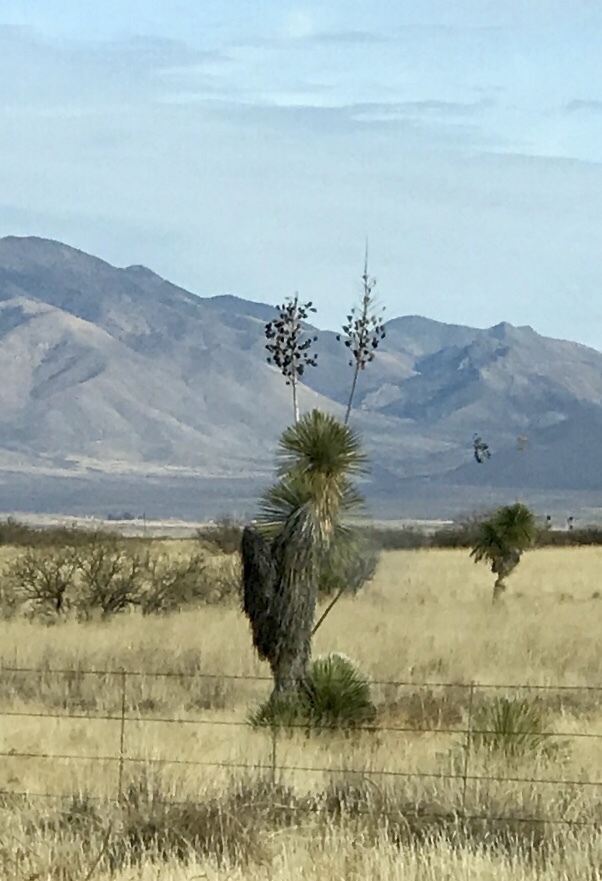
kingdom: Plantae
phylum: Tracheophyta
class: Liliopsida
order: Asparagales
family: Asparagaceae
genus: Yucca
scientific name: Yucca elata
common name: Palmella
